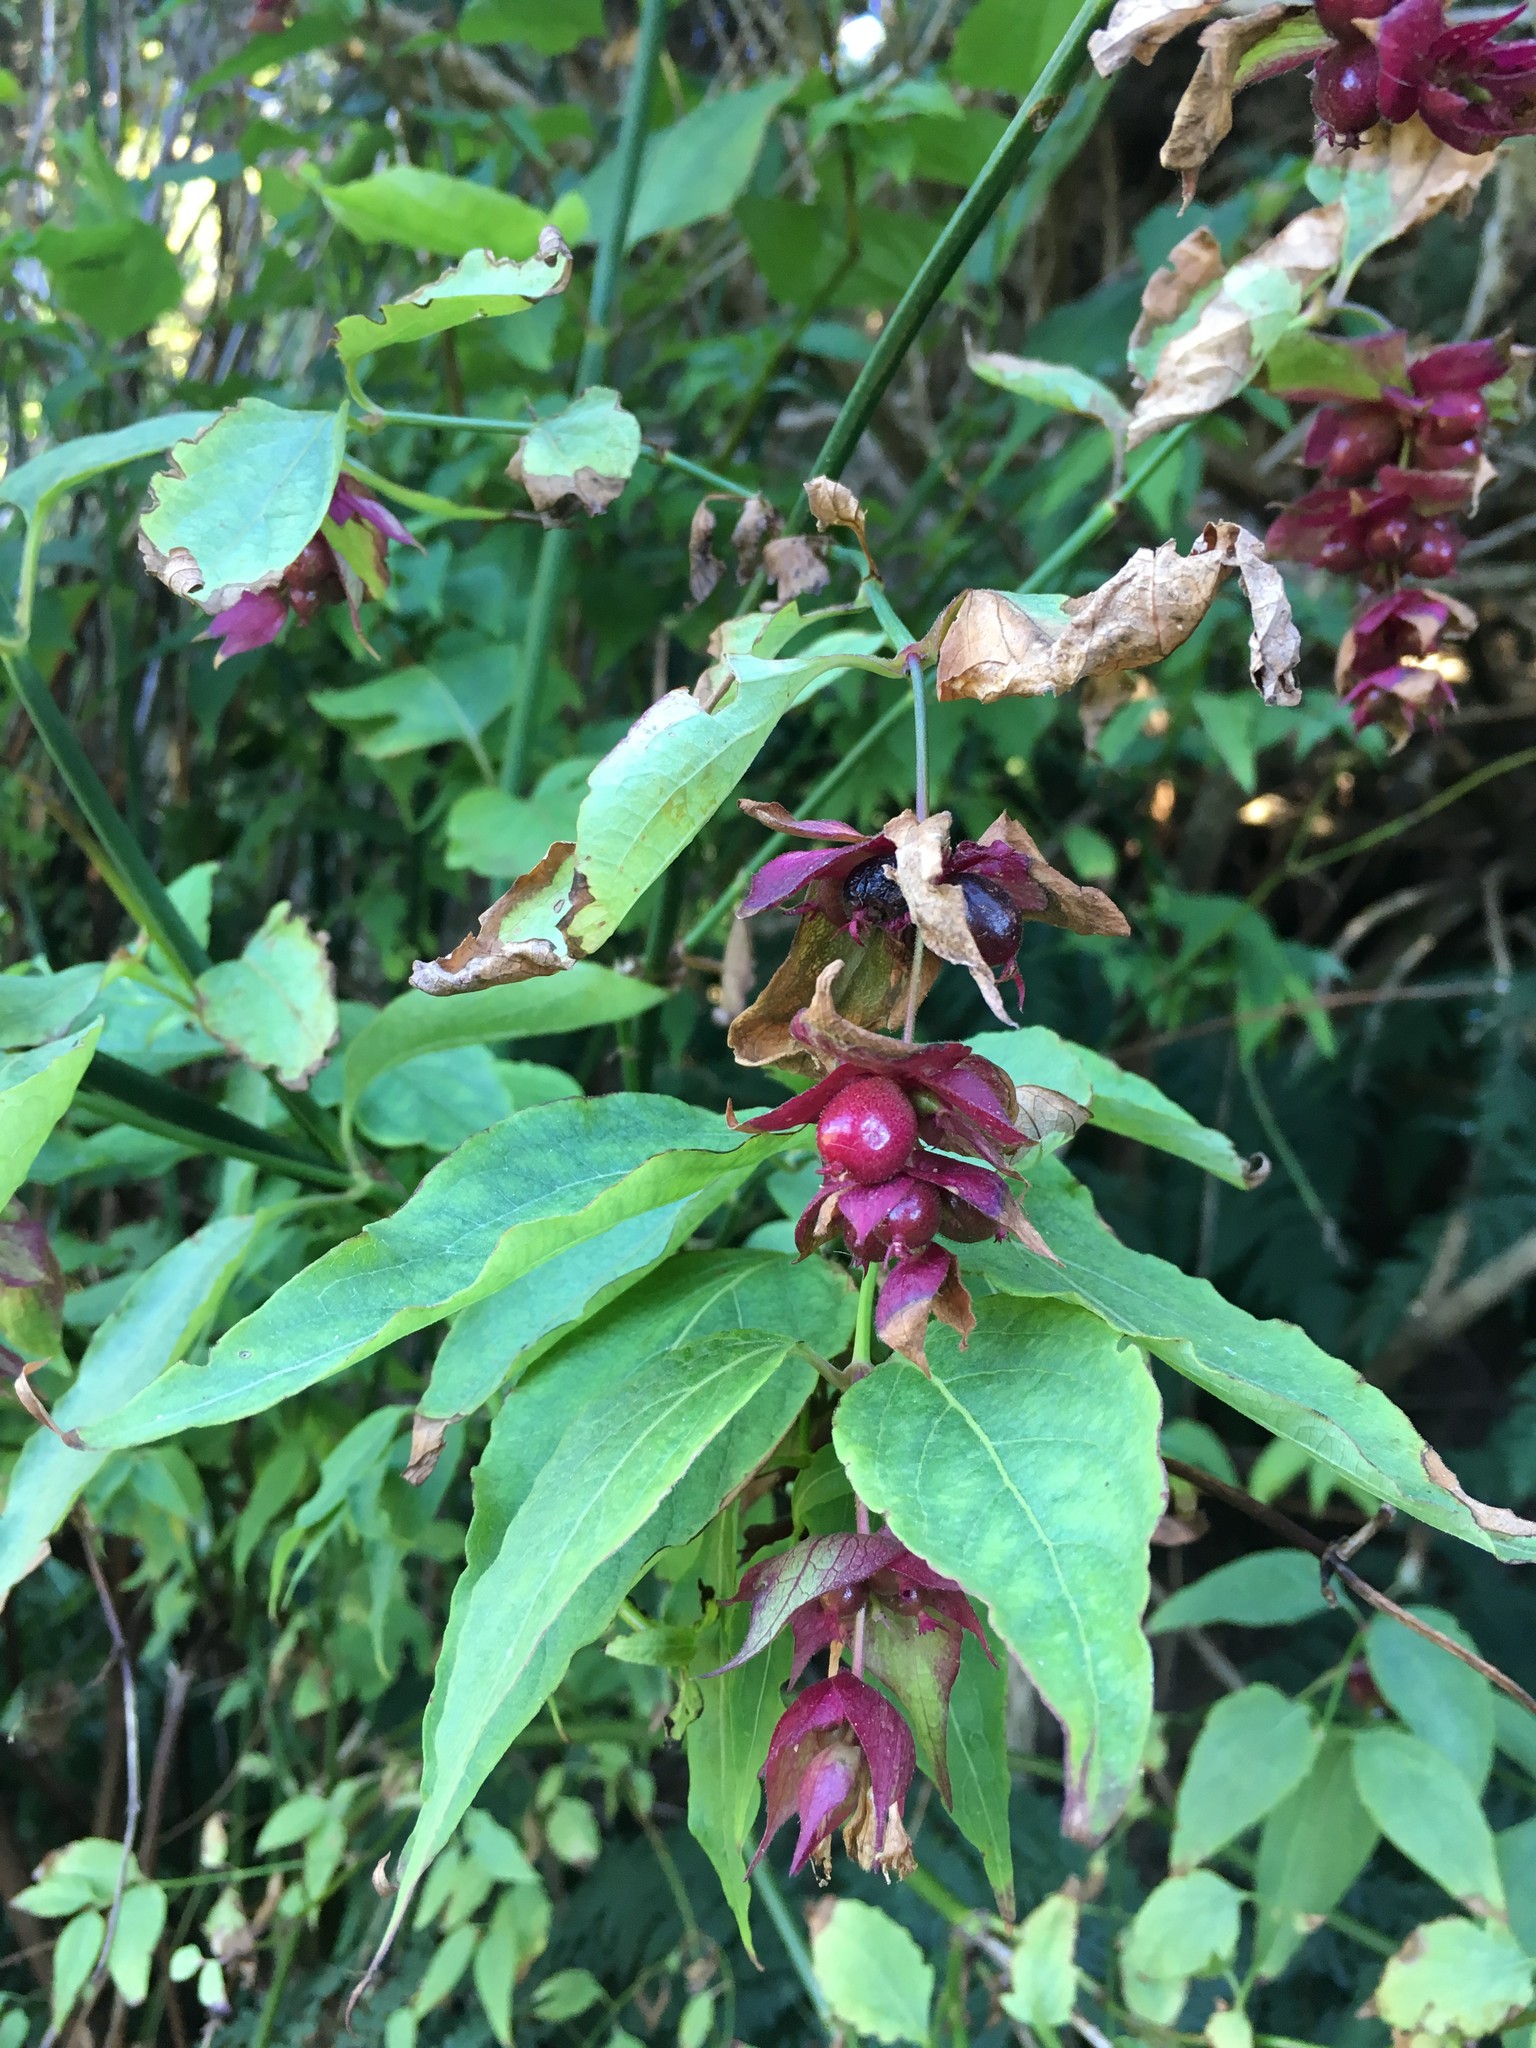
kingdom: Plantae
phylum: Tracheophyta
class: Magnoliopsida
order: Dipsacales
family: Caprifoliaceae
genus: Leycesteria
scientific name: Leycesteria formosa
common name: Himalayan honeysuckle
